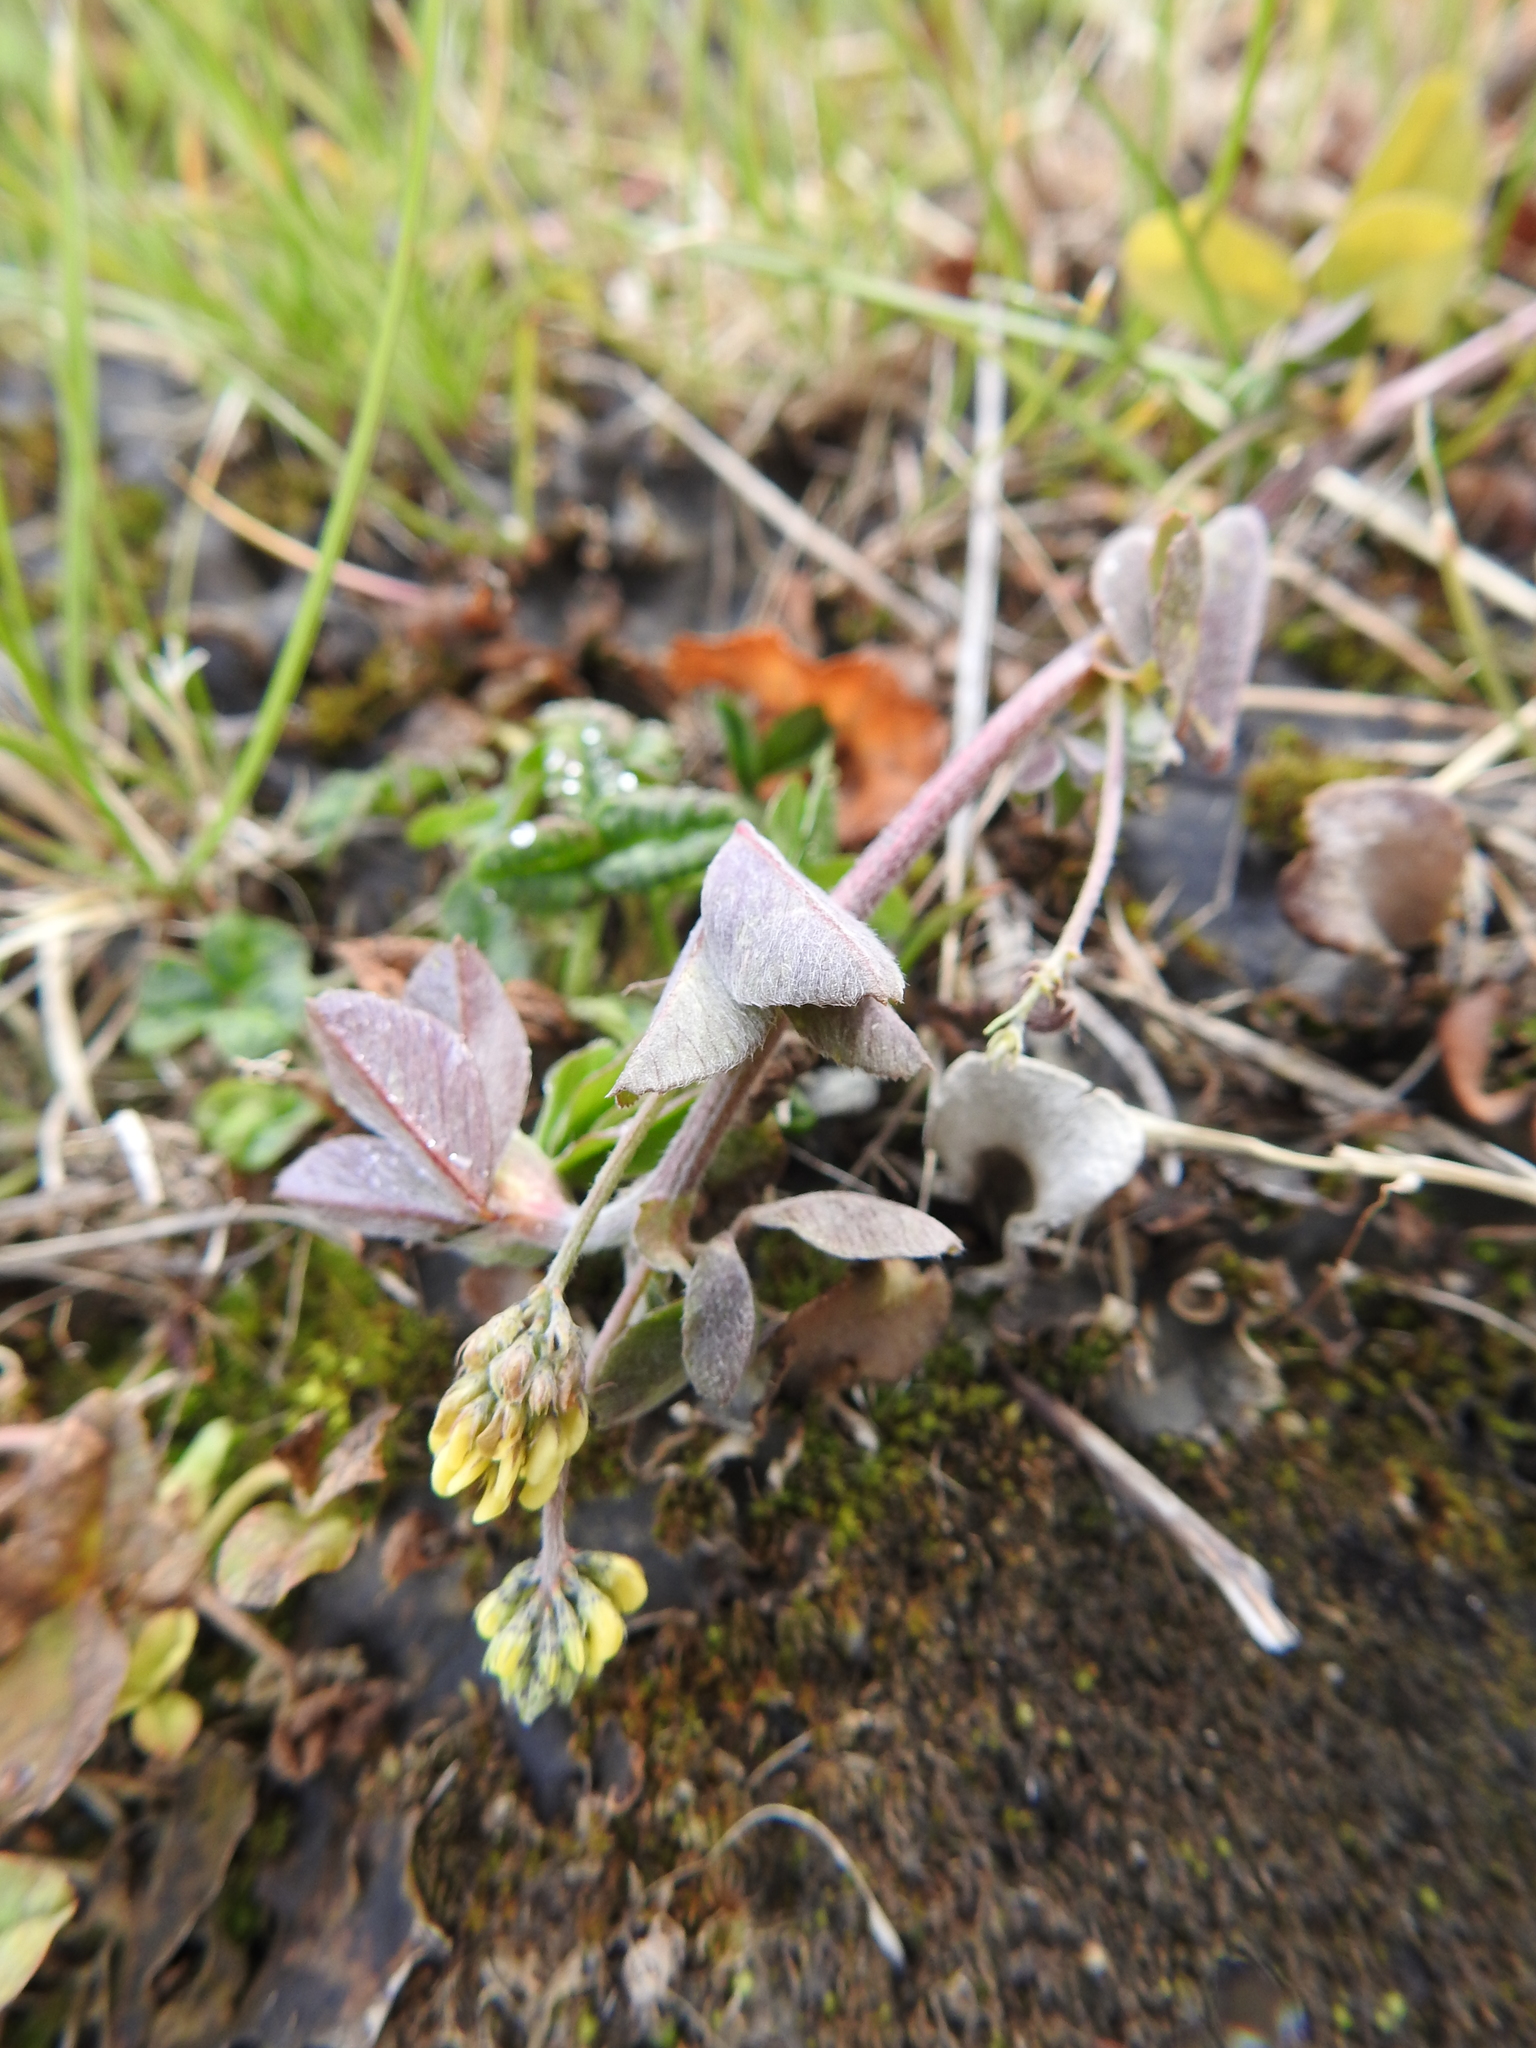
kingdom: Plantae
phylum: Tracheophyta
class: Magnoliopsida
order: Fabales
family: Fabaceae
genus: Medicago
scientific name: Medicago lupulina
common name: Black medick
